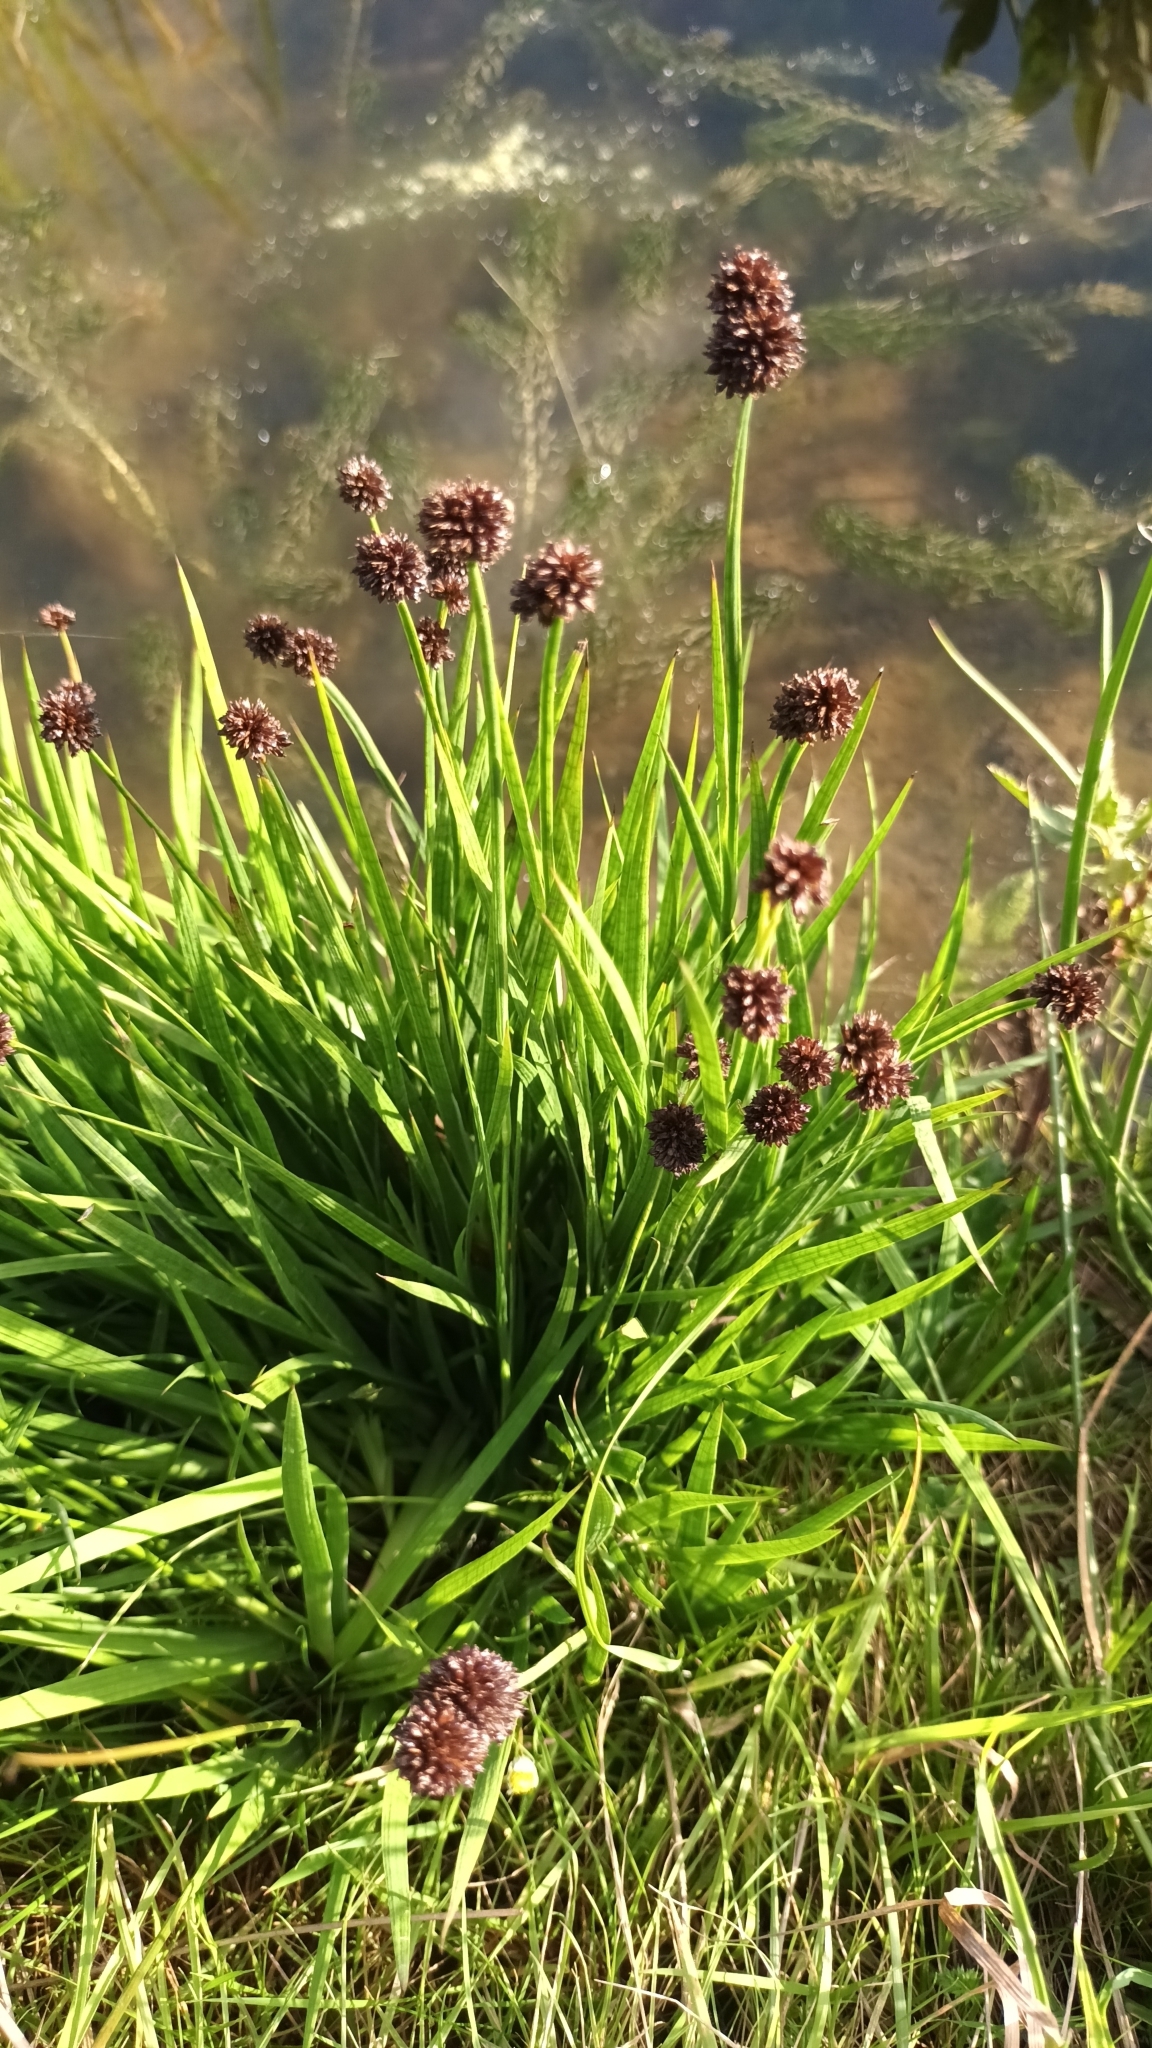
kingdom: Plantae
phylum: Tracheophyta
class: Liliopsida
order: Poales
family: Juncaceae
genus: Juncus
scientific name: Juncus ensifolius
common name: Sword-leaved rush
